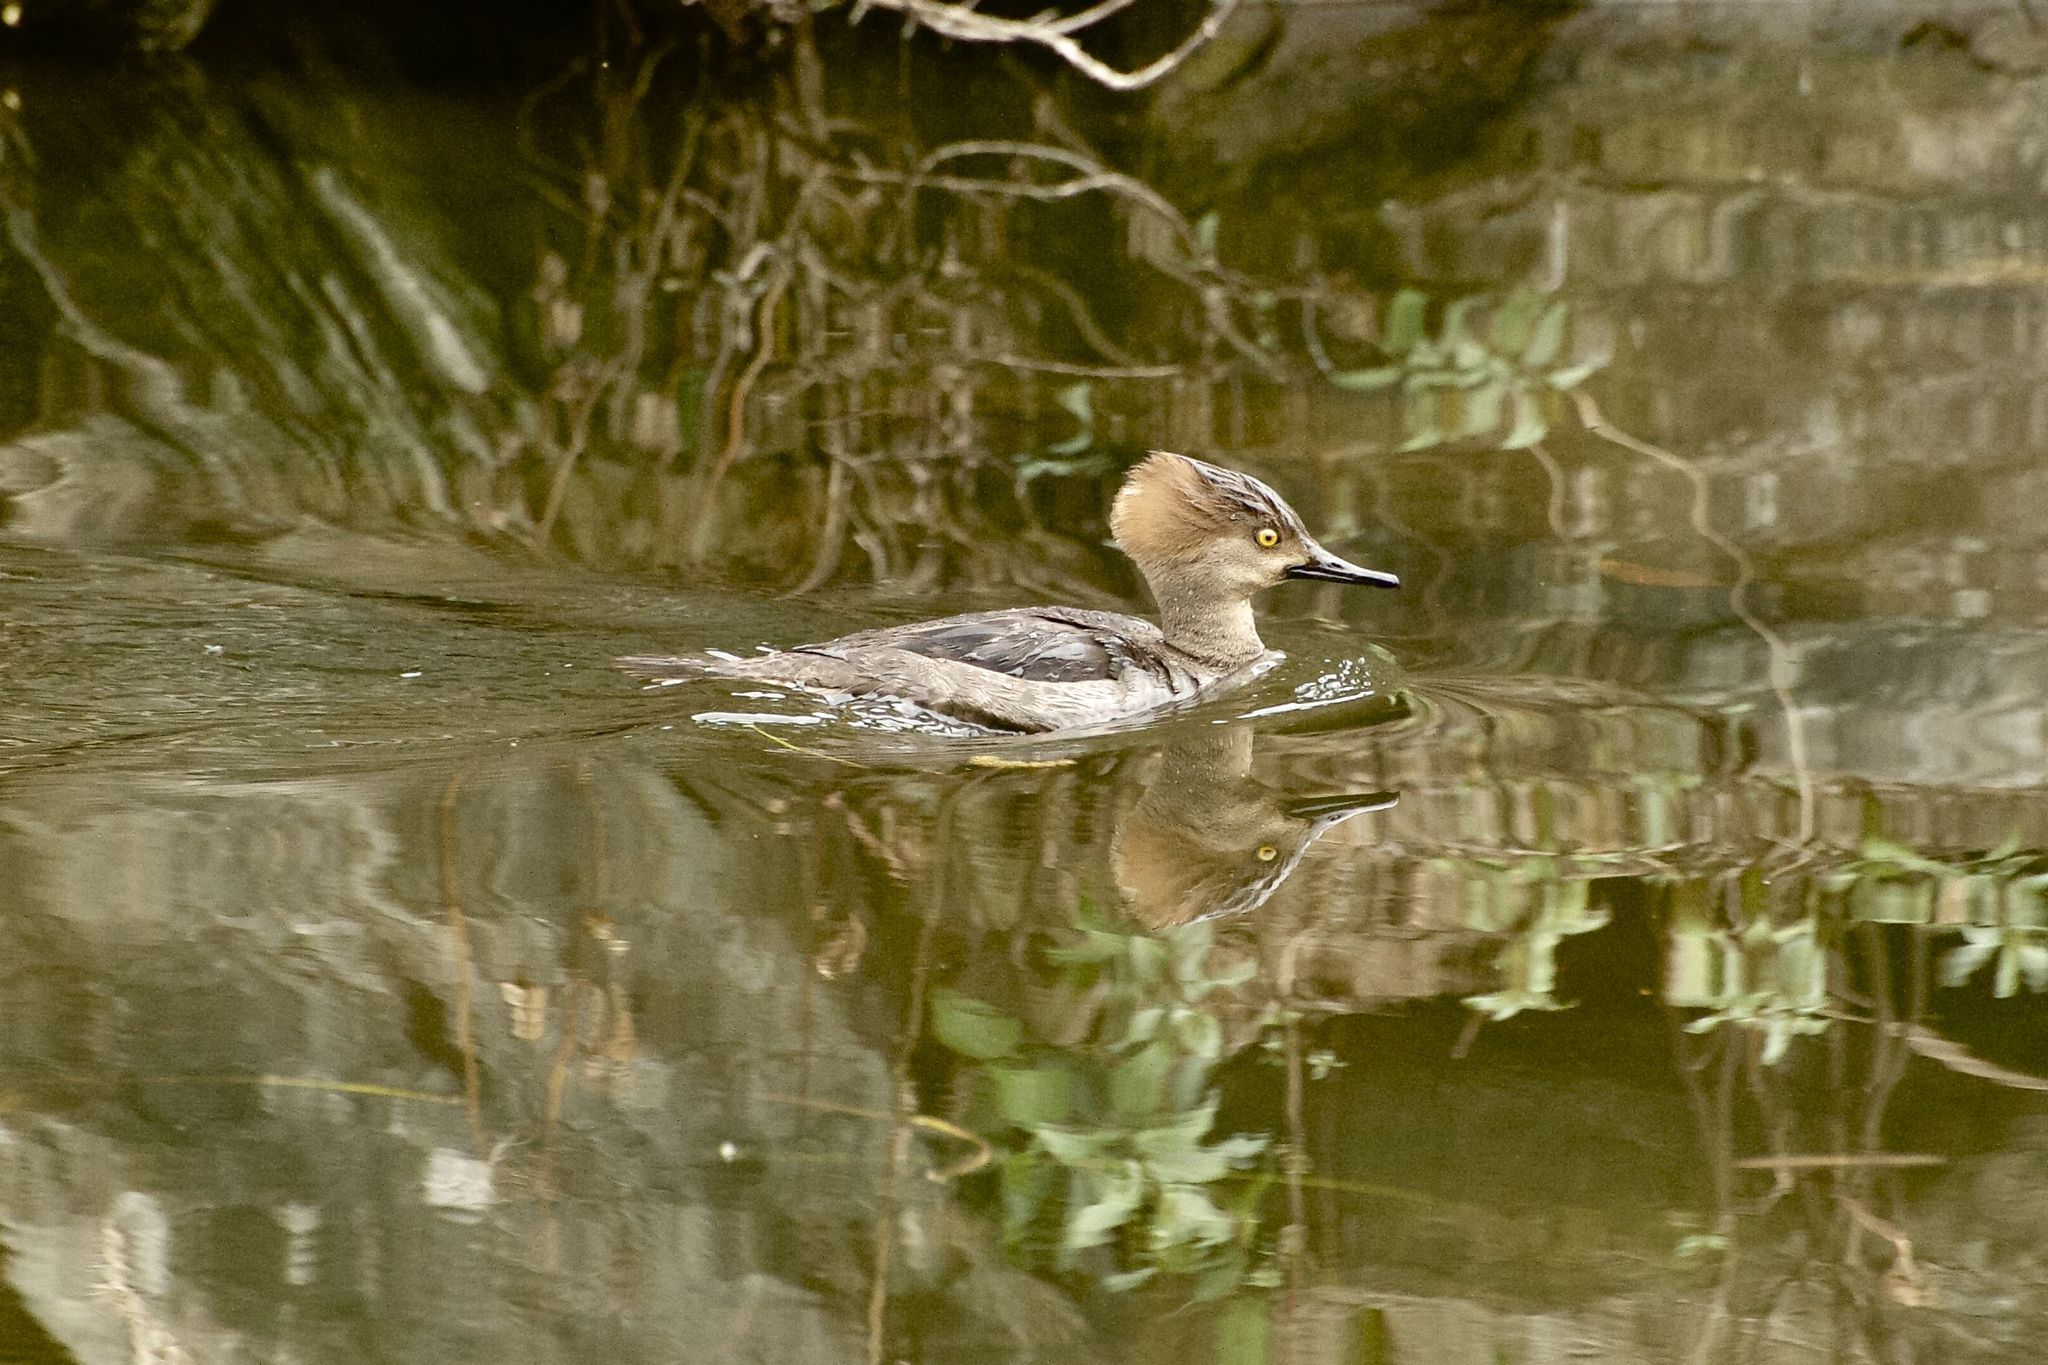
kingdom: Animalia
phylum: Chordata
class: Aves
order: Anseriformes
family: Anatidae
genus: Lophodytes
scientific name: Lophodytes cucullatus
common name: Hooded merganser
